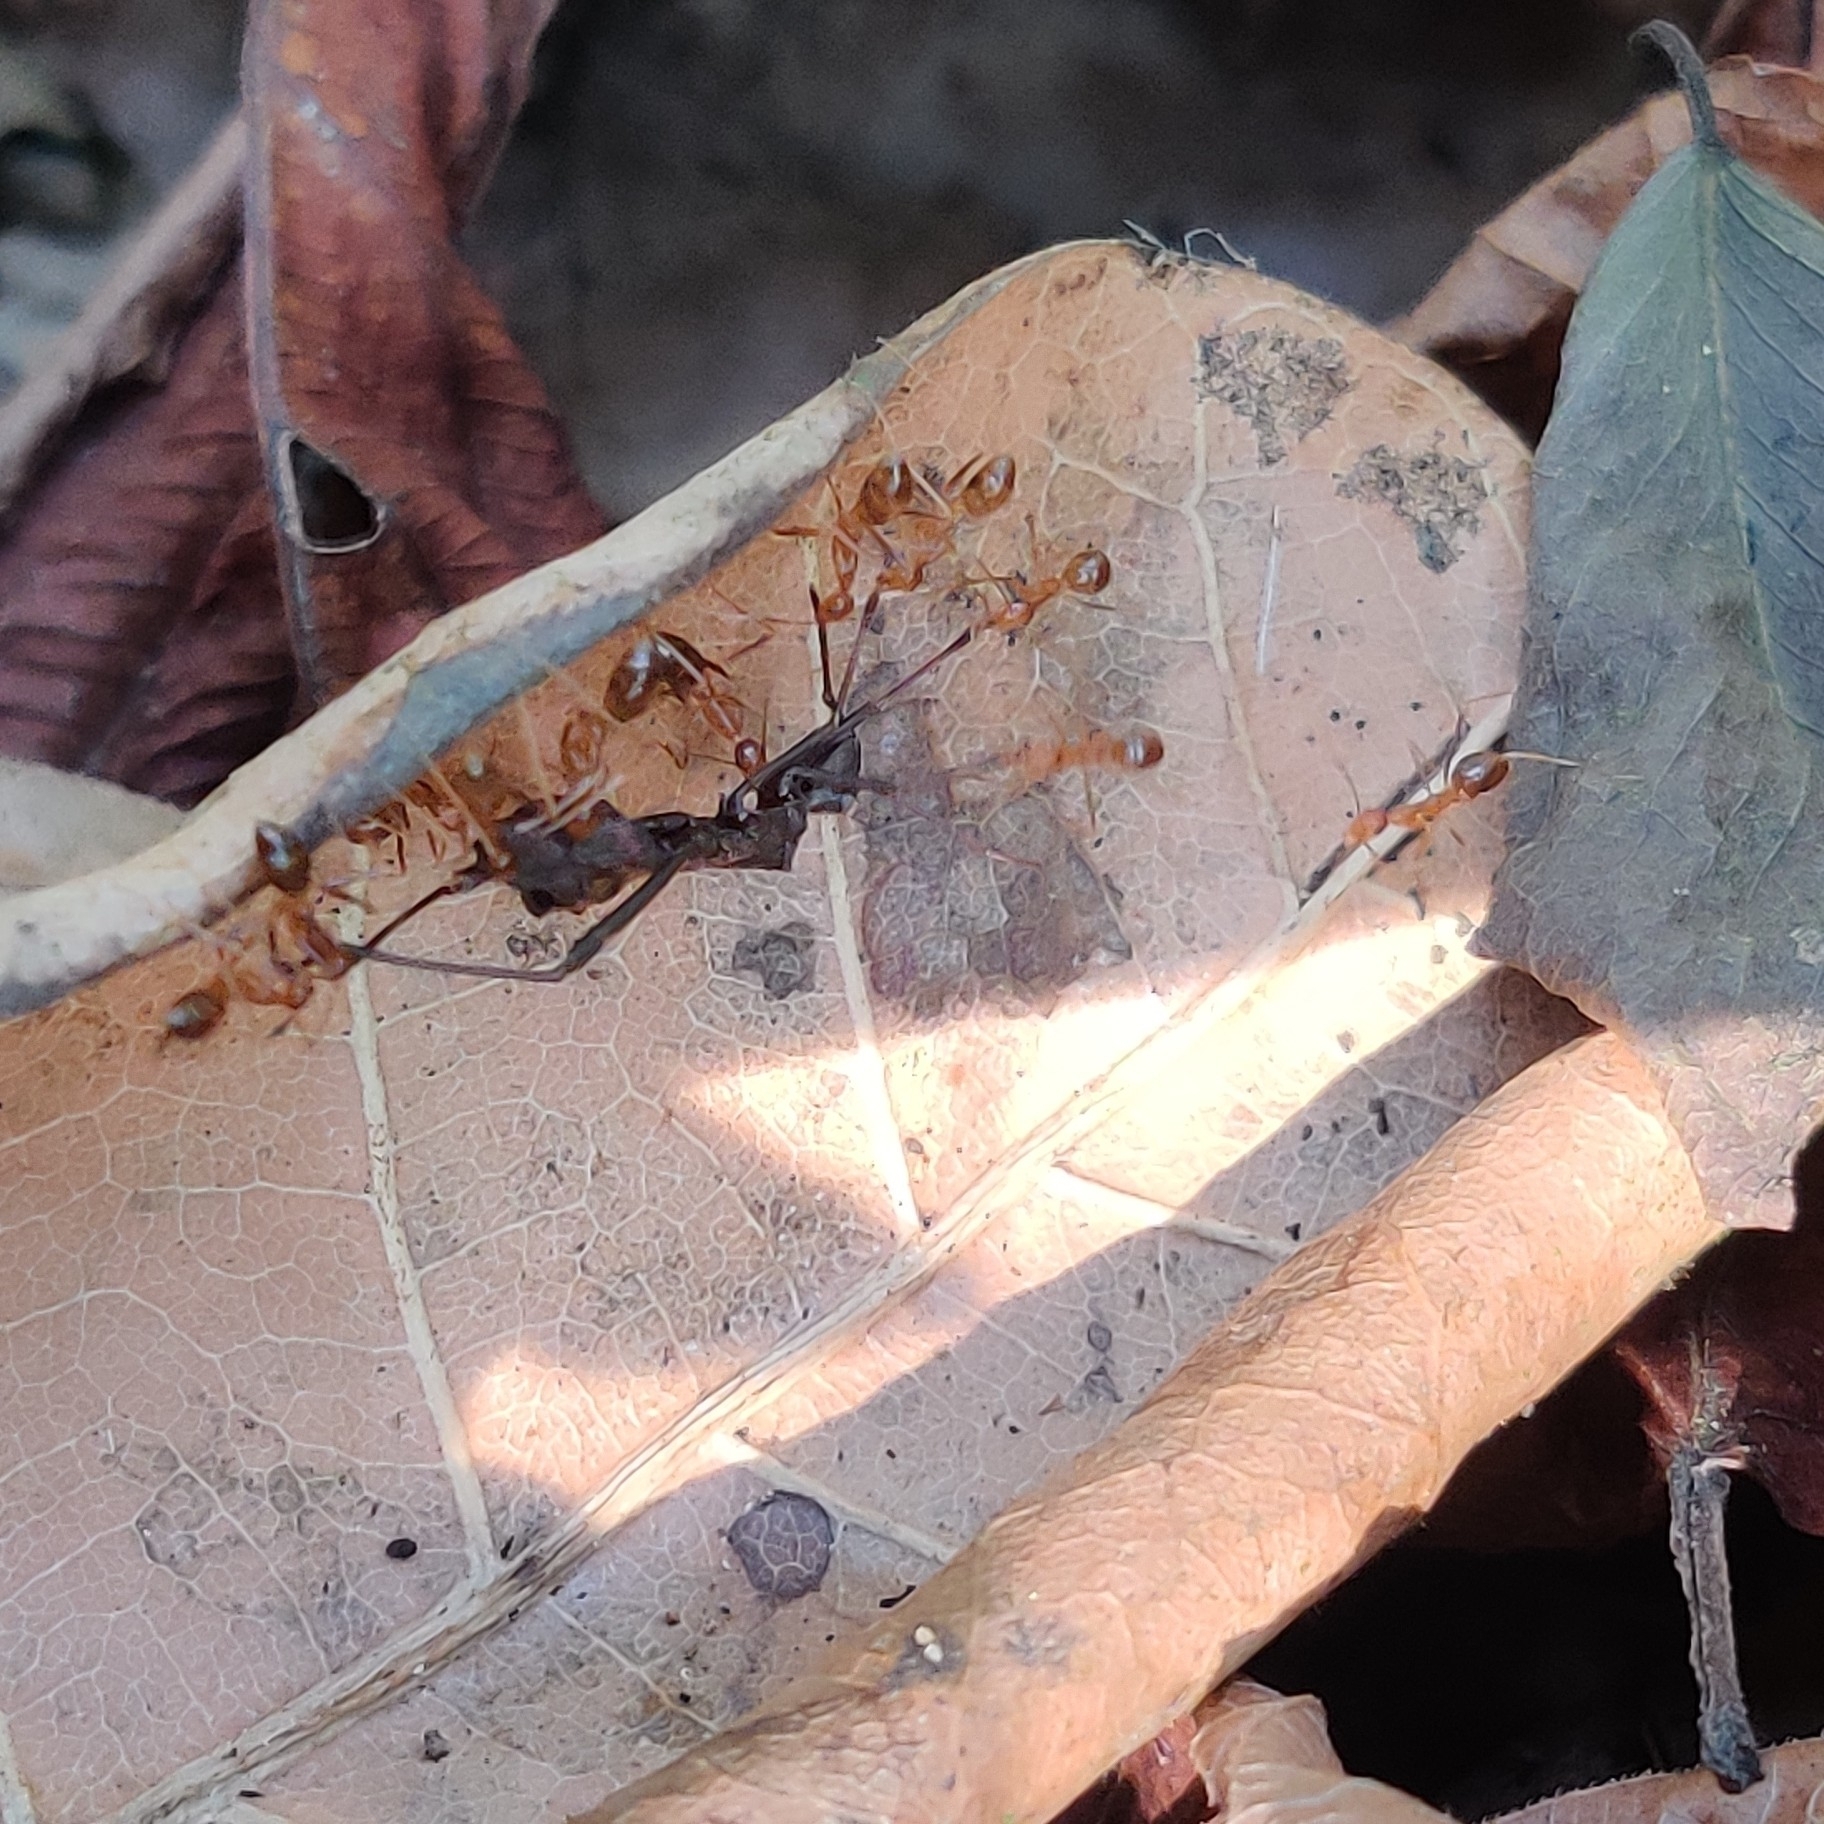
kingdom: Animalia
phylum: Arthropoda
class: Insecta
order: Hymenoptera
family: Formicidae
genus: Anoplolepis
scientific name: Anoplolepis gracilipes
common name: Ant
